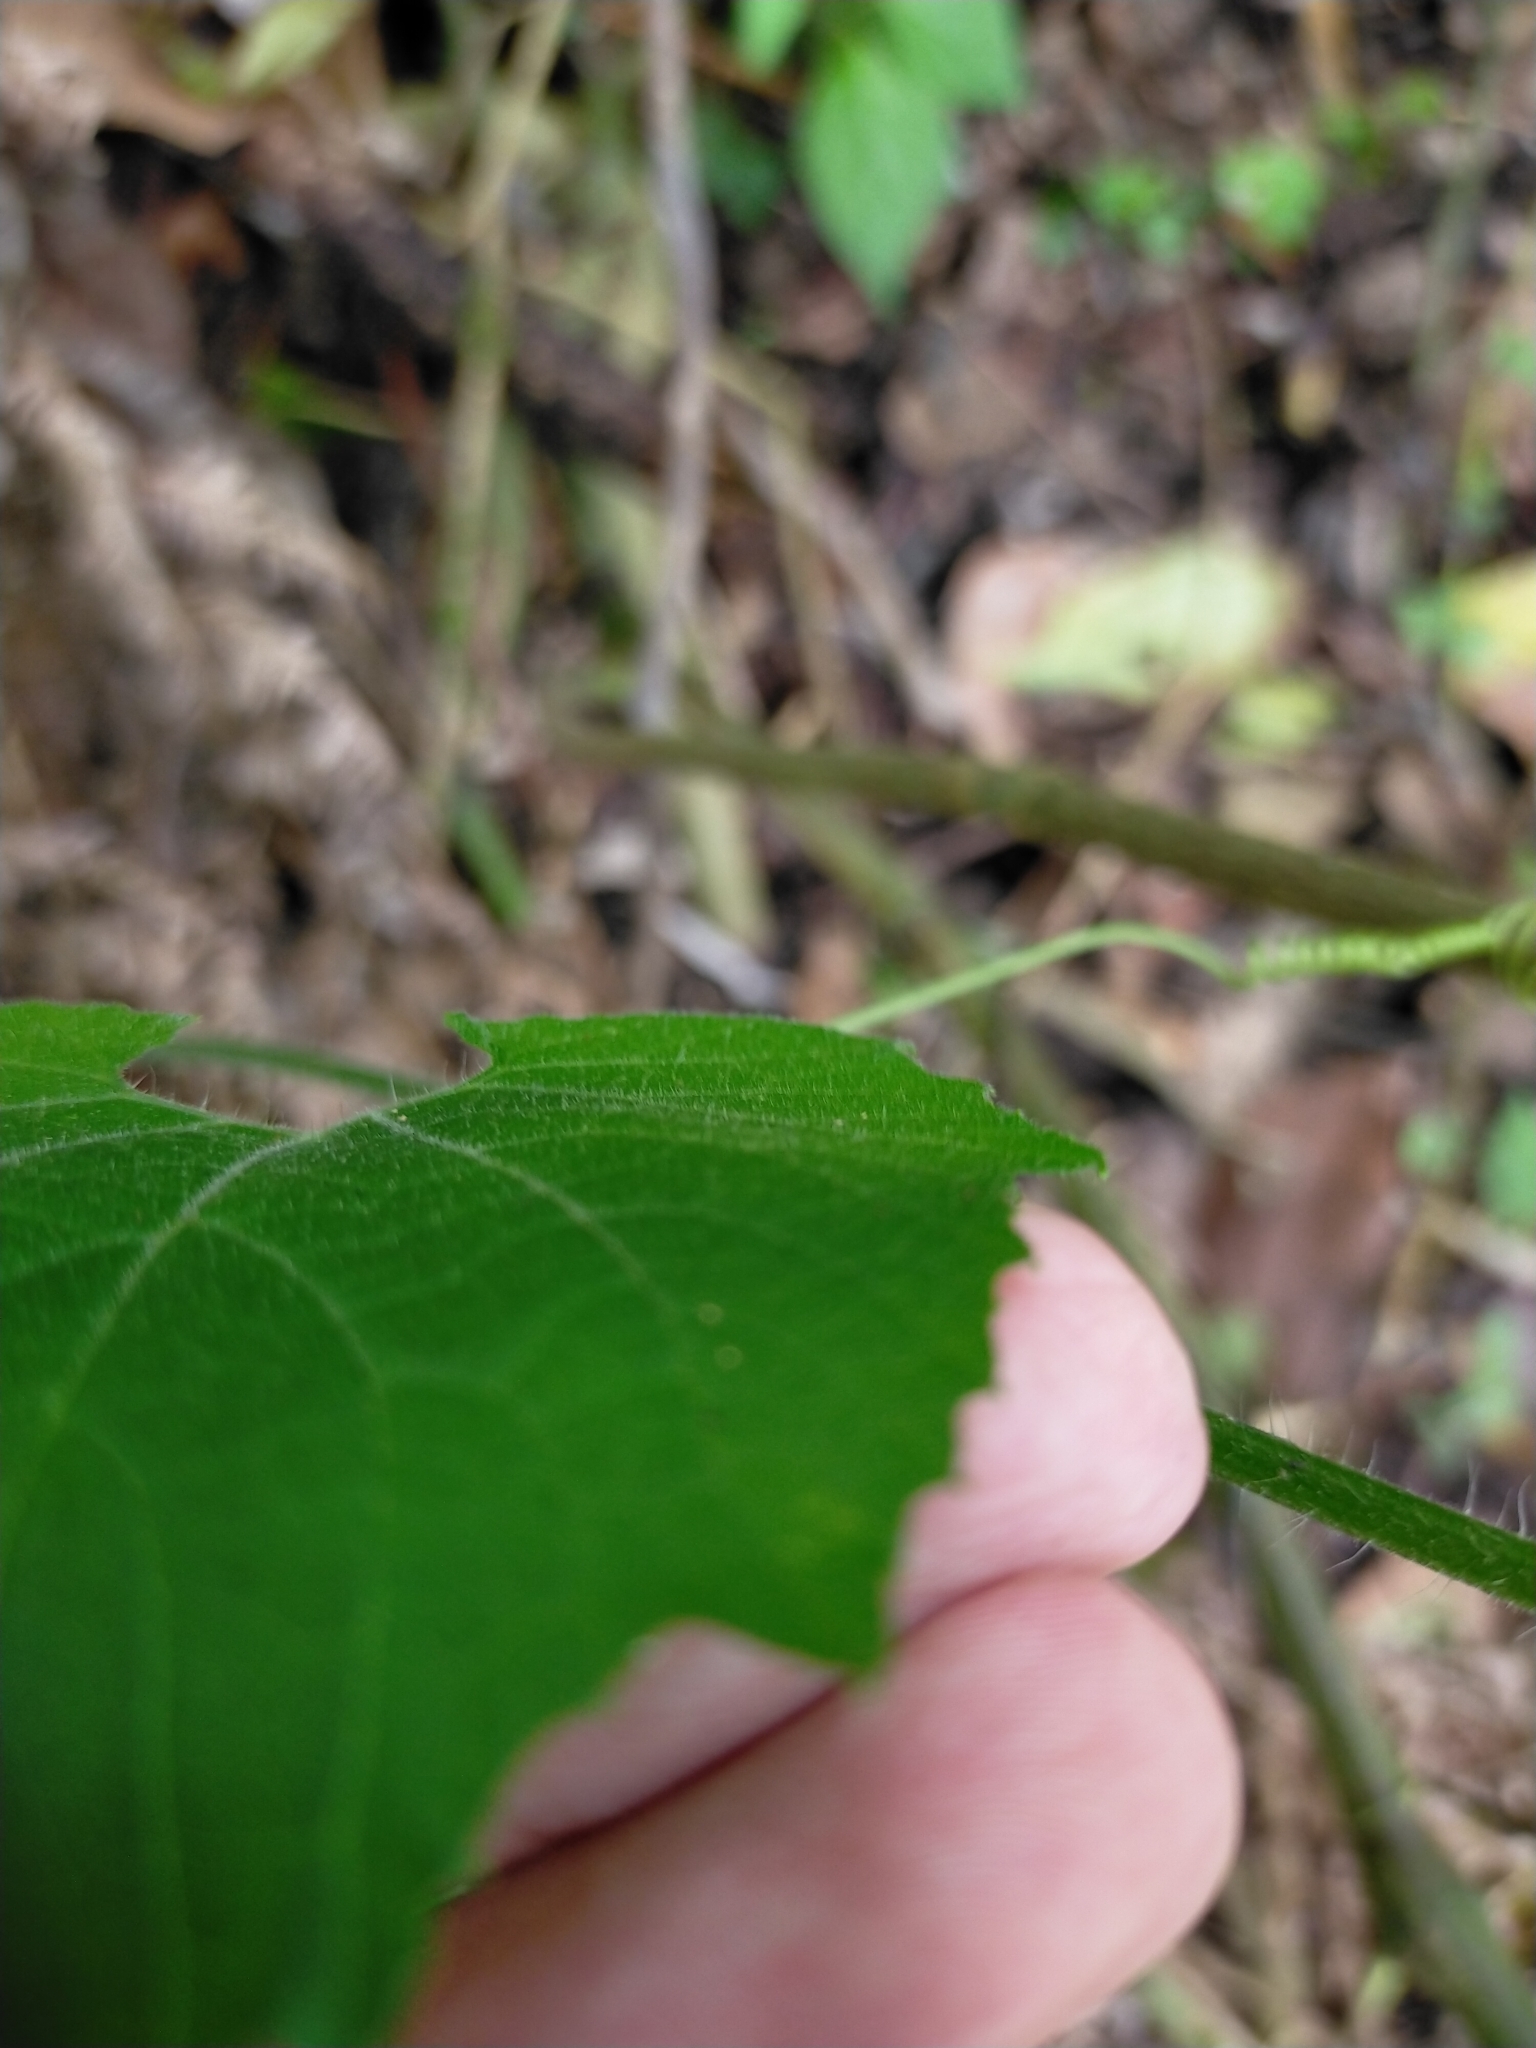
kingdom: Plantae
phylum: Tracheophyta
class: Magnoliopsida
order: Cucurbitales
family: Cucurbitaceae
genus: Thladiantha
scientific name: Thladiantha nudiflora
